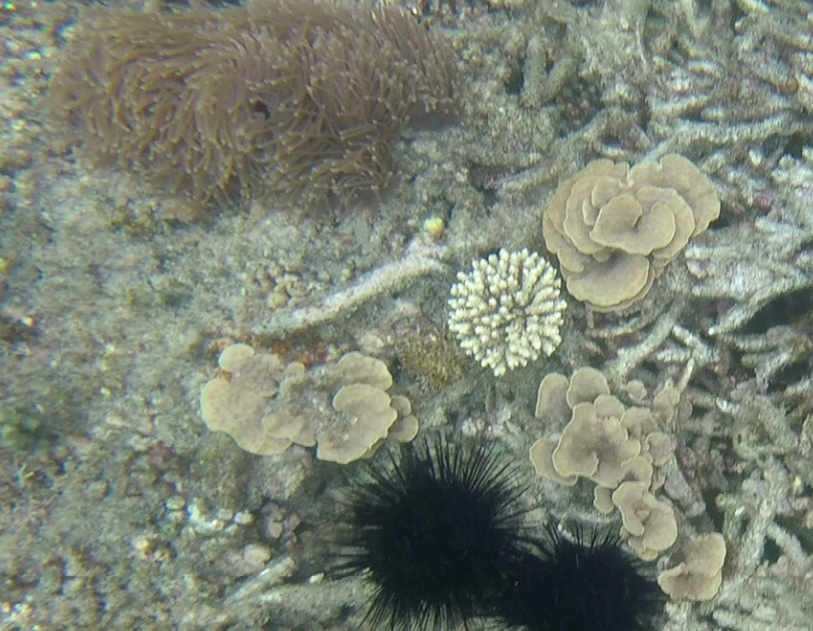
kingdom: Animalia
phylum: Cnidaria
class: Anthozoa
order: Actiniaria
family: Stichodactylidae
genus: Radianthus
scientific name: Radianthus magnifica
